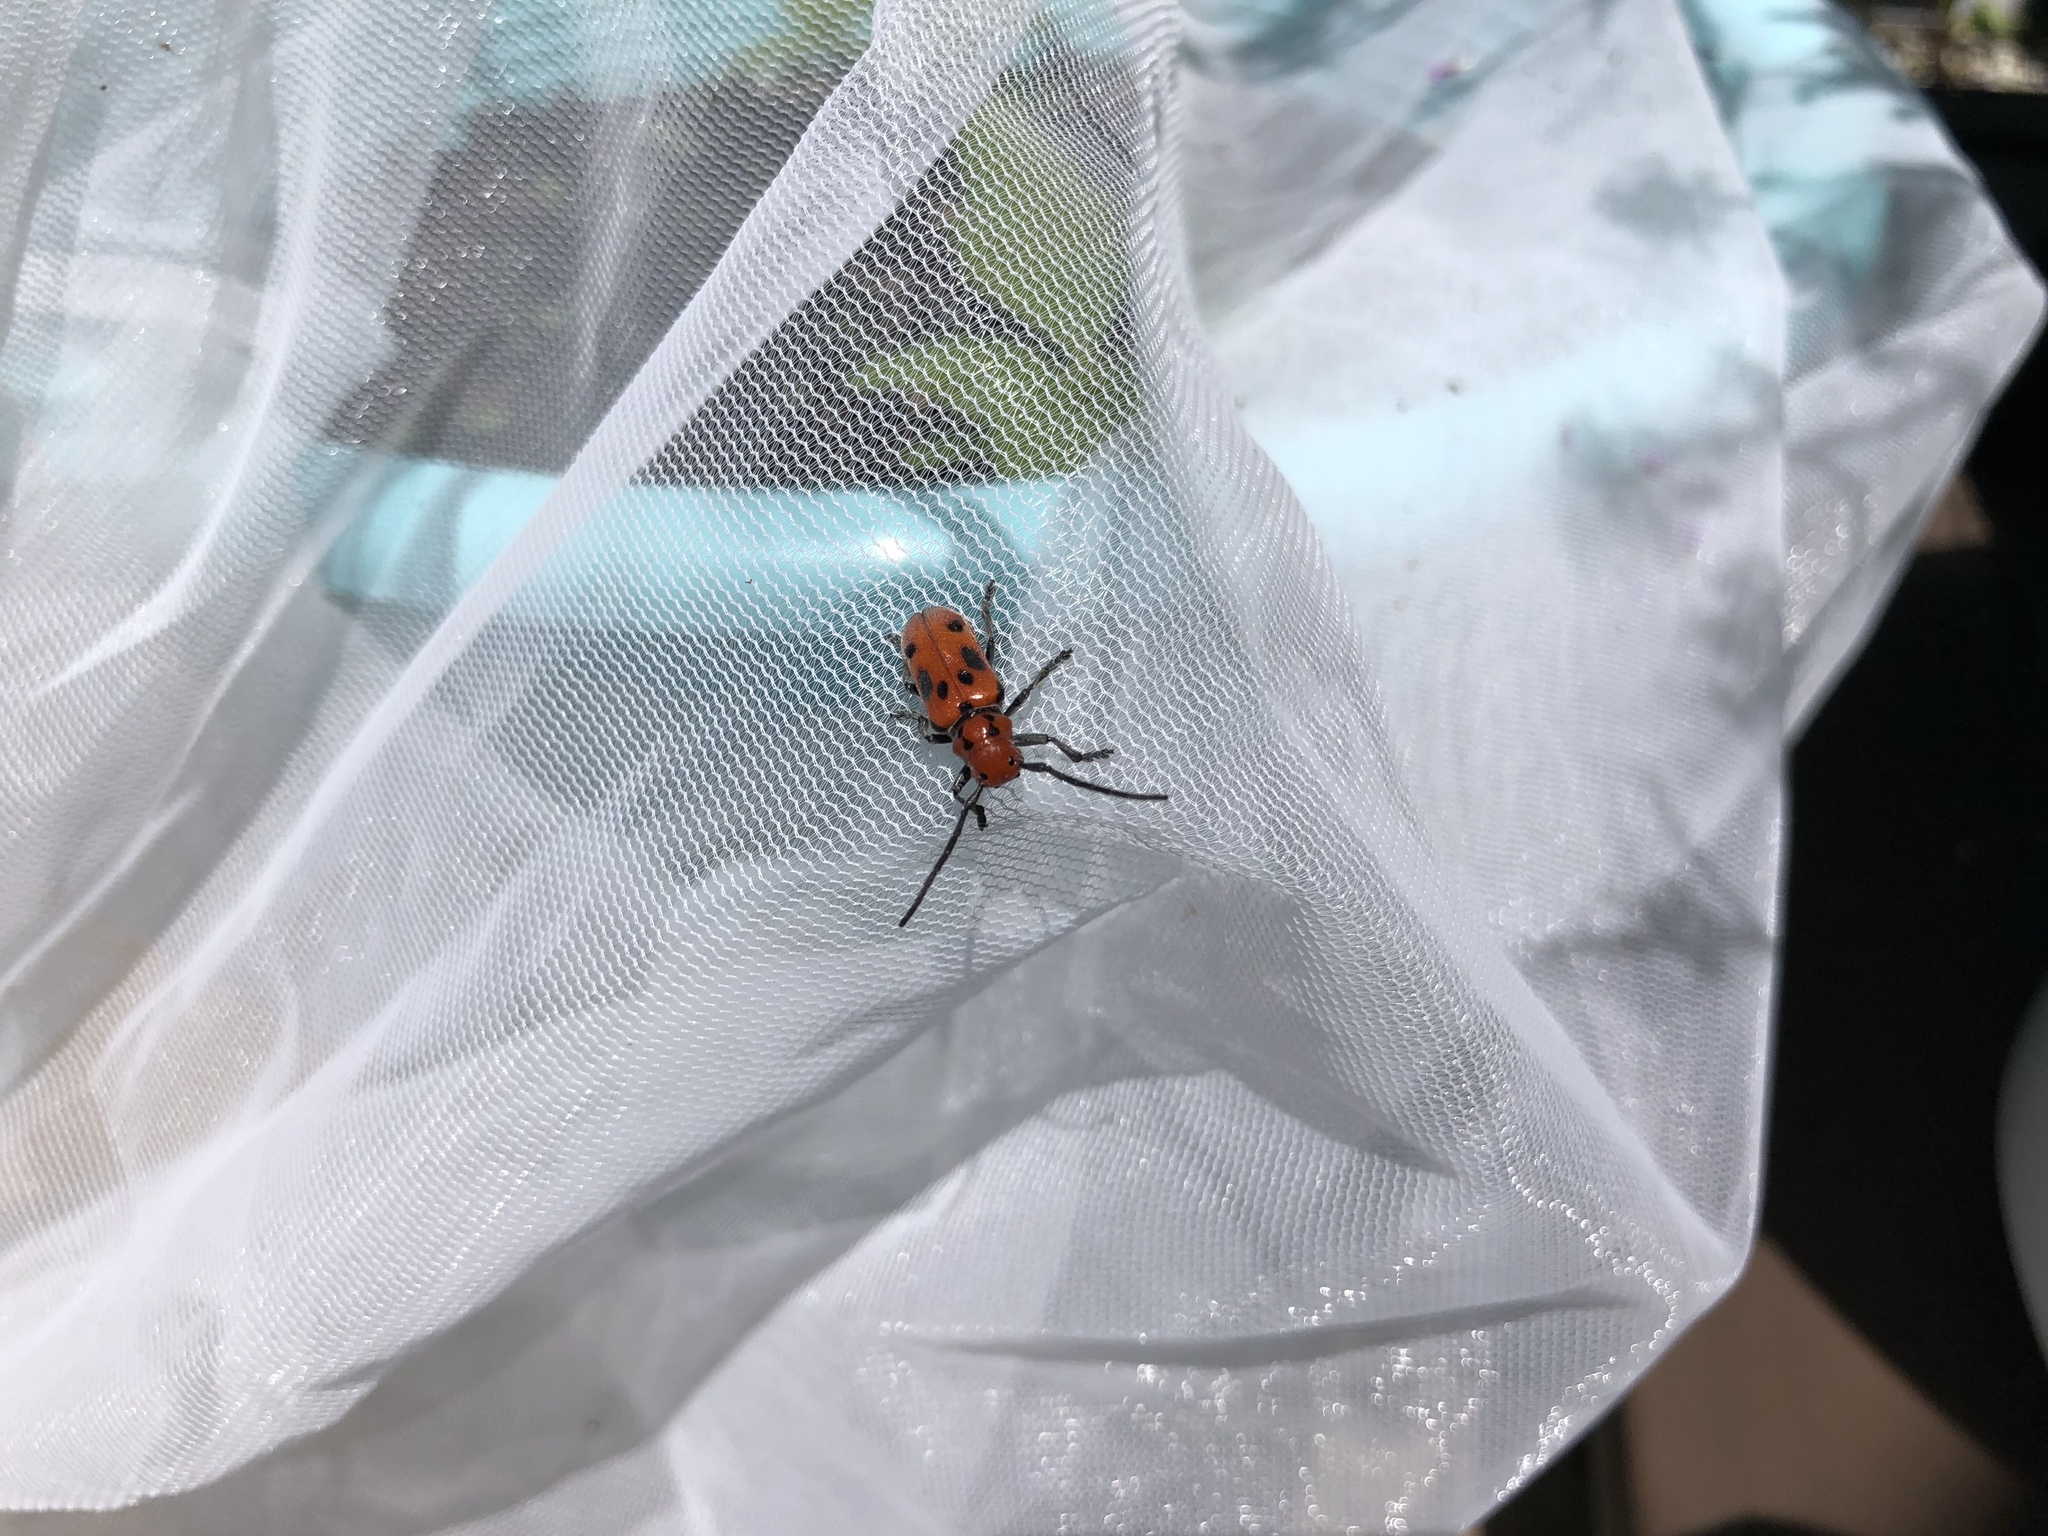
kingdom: Animalia
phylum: Arthropoda
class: Insecta
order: Coleoptera
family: Cerambycidae
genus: Tetraopes
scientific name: Tetraopes tetrophthalmus
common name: Red milkweed beetle
